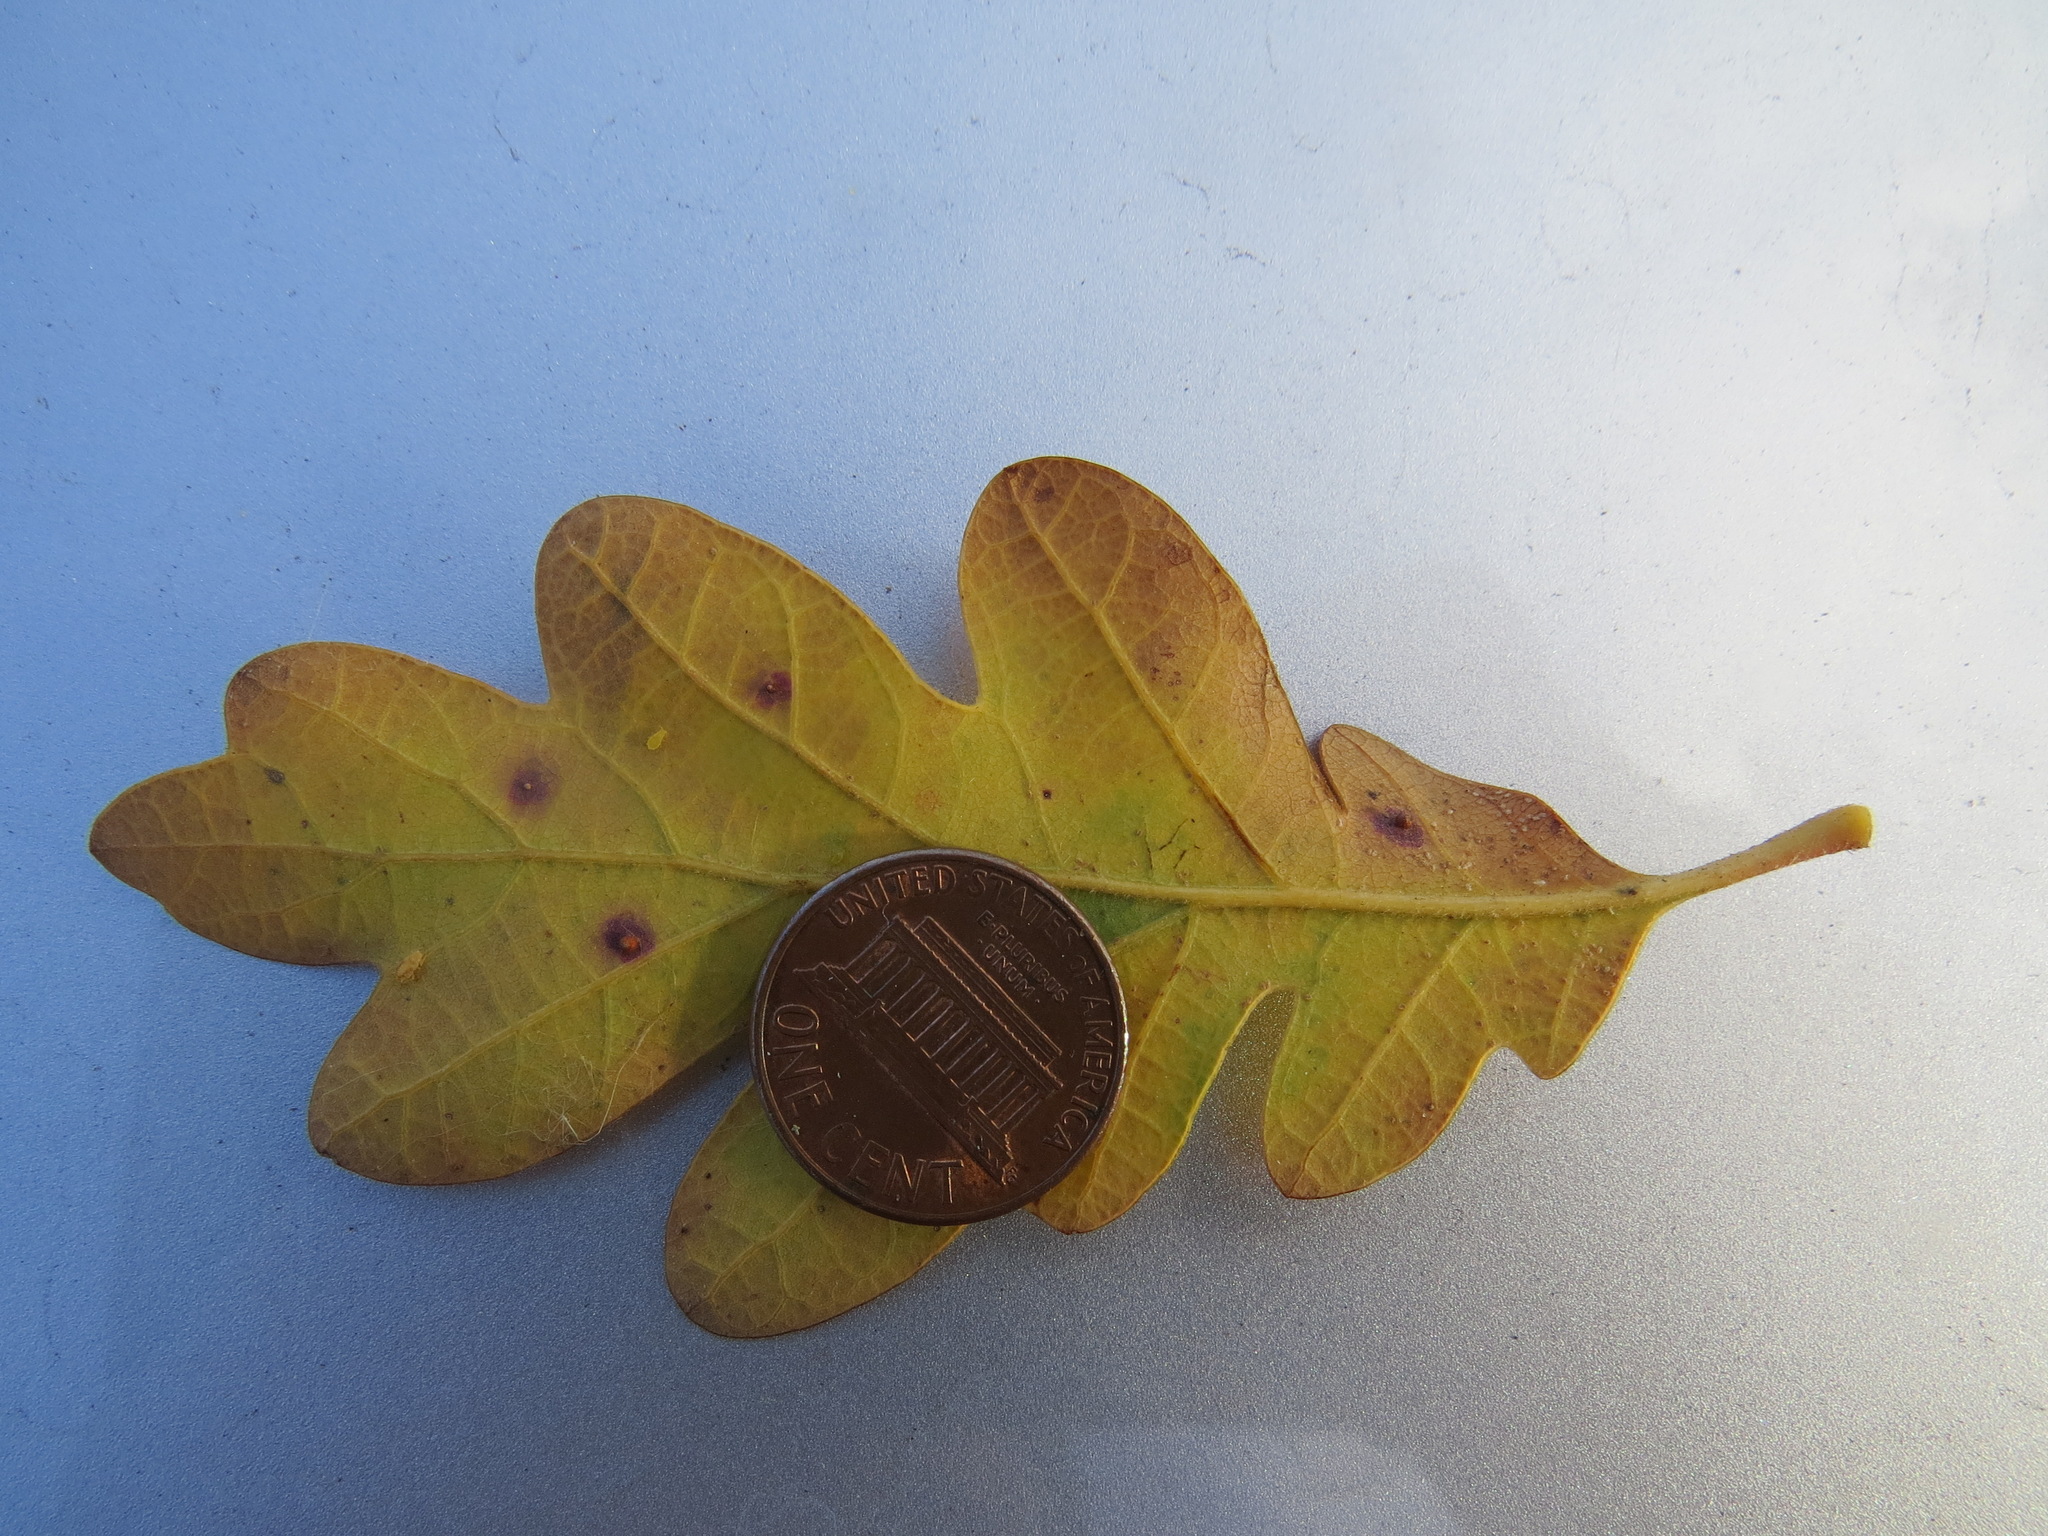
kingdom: Animalia
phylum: Arthropoda
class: Insecta
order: Hymenoptera
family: Cynipidae
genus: Neuroterus
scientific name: Neuroterus saltarius
